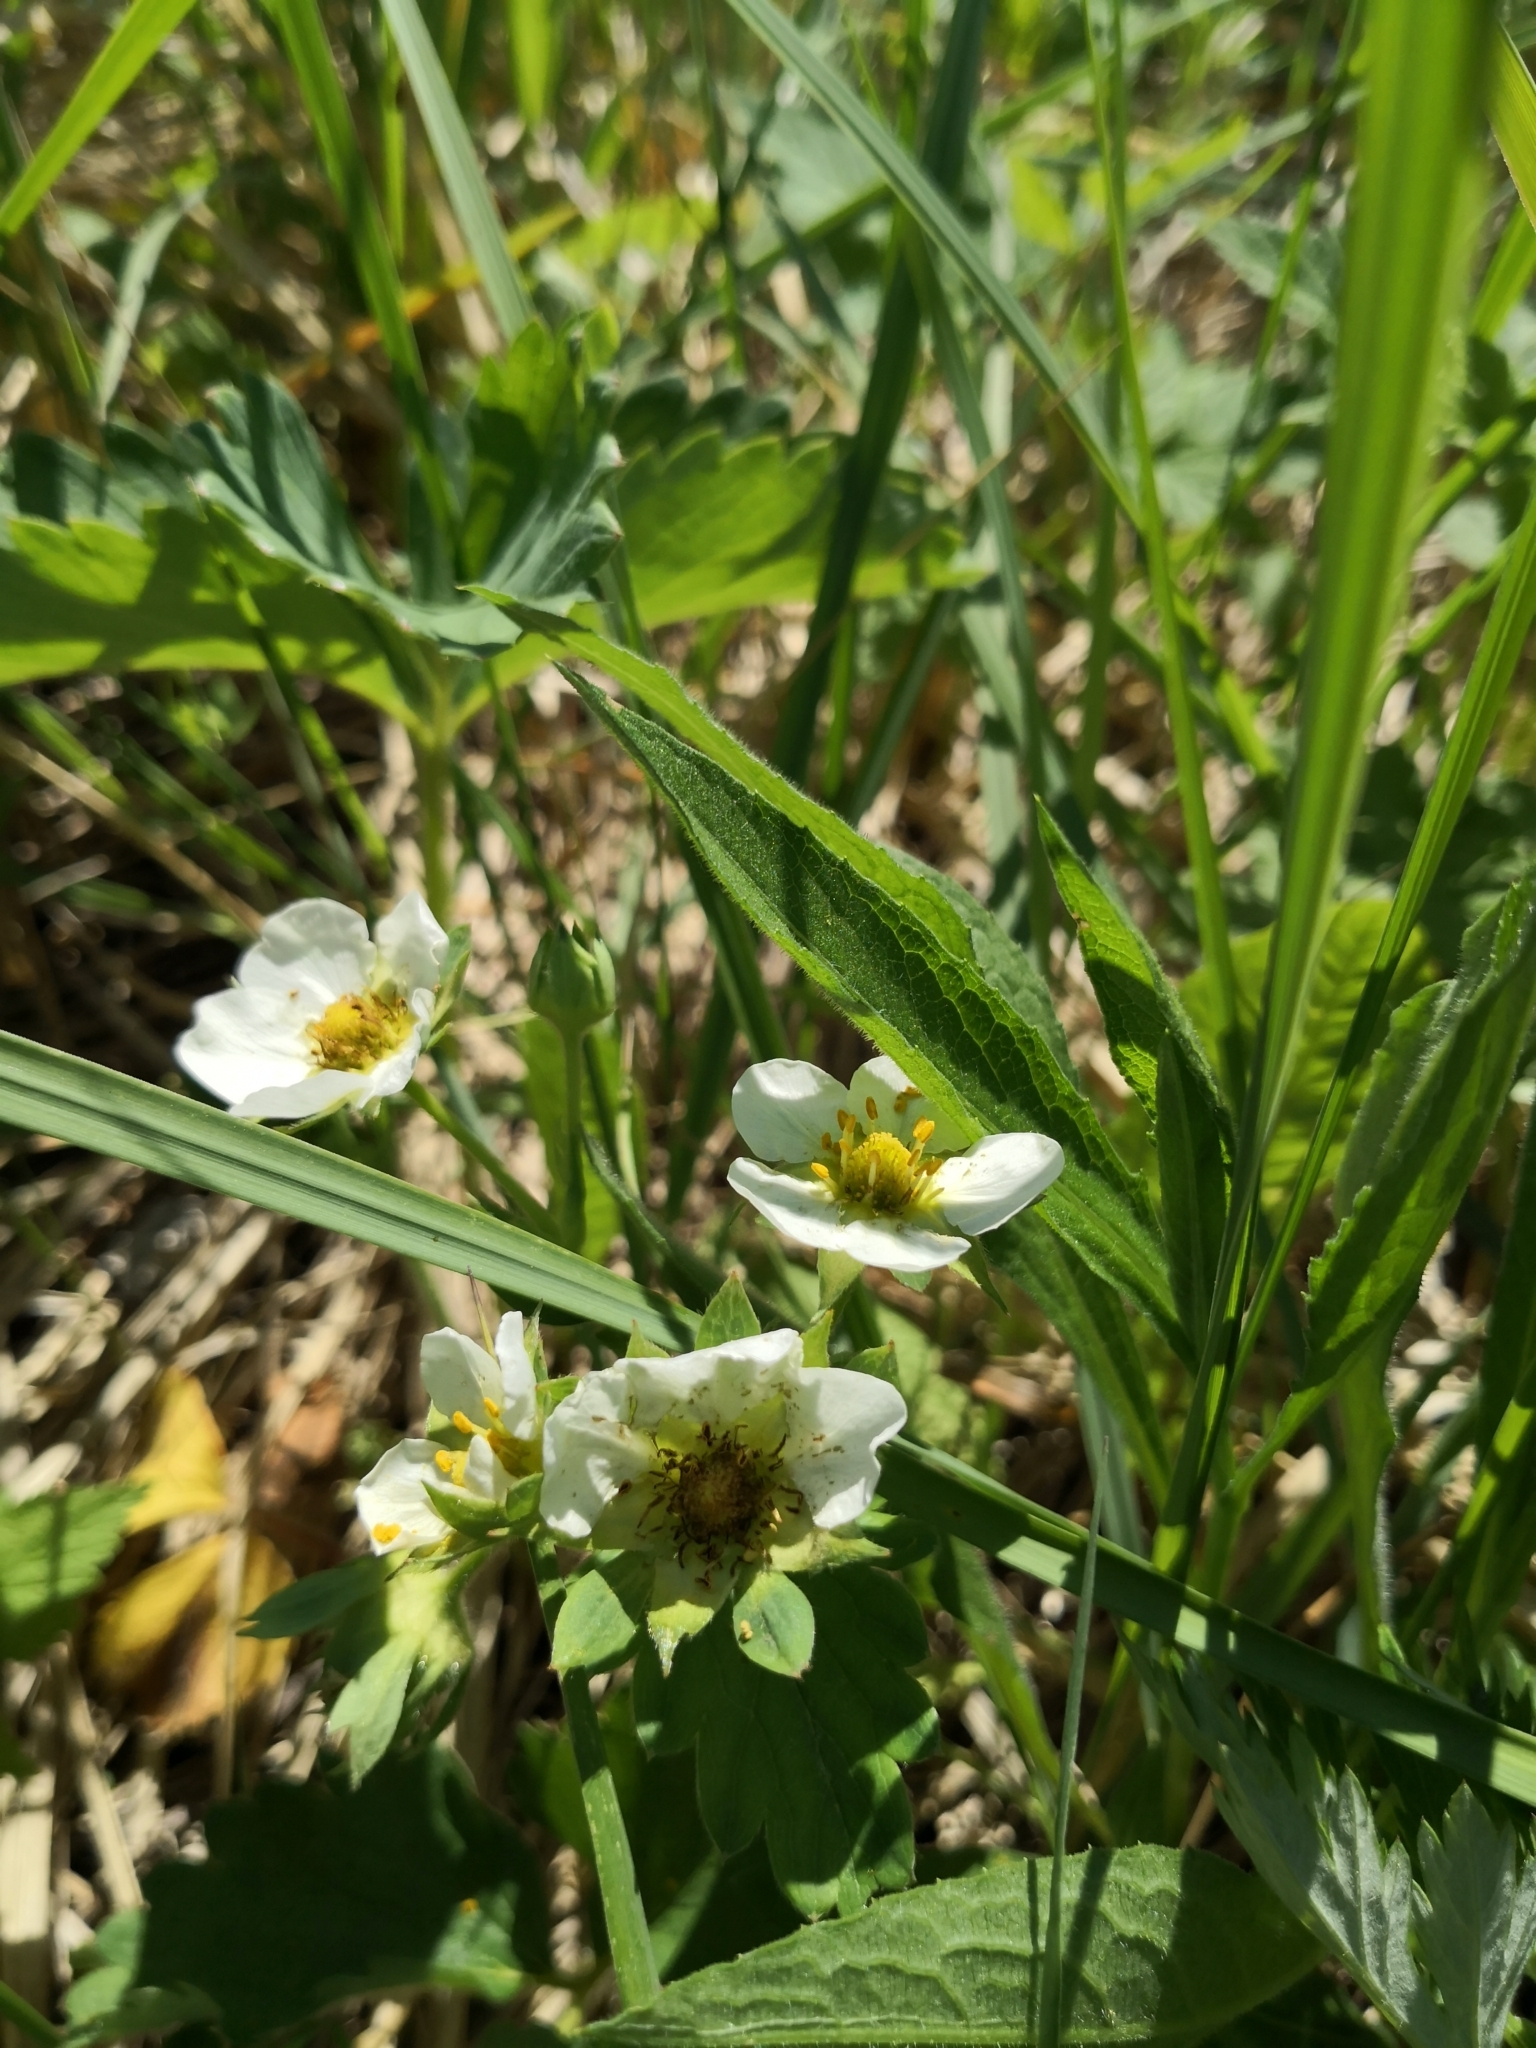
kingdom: Plantae
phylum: Tracheophyta
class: Magnoliopsida
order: Rosales
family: Rosaceae
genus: Fragaria
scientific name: Fragaria ananassa
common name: Garden strawberry
